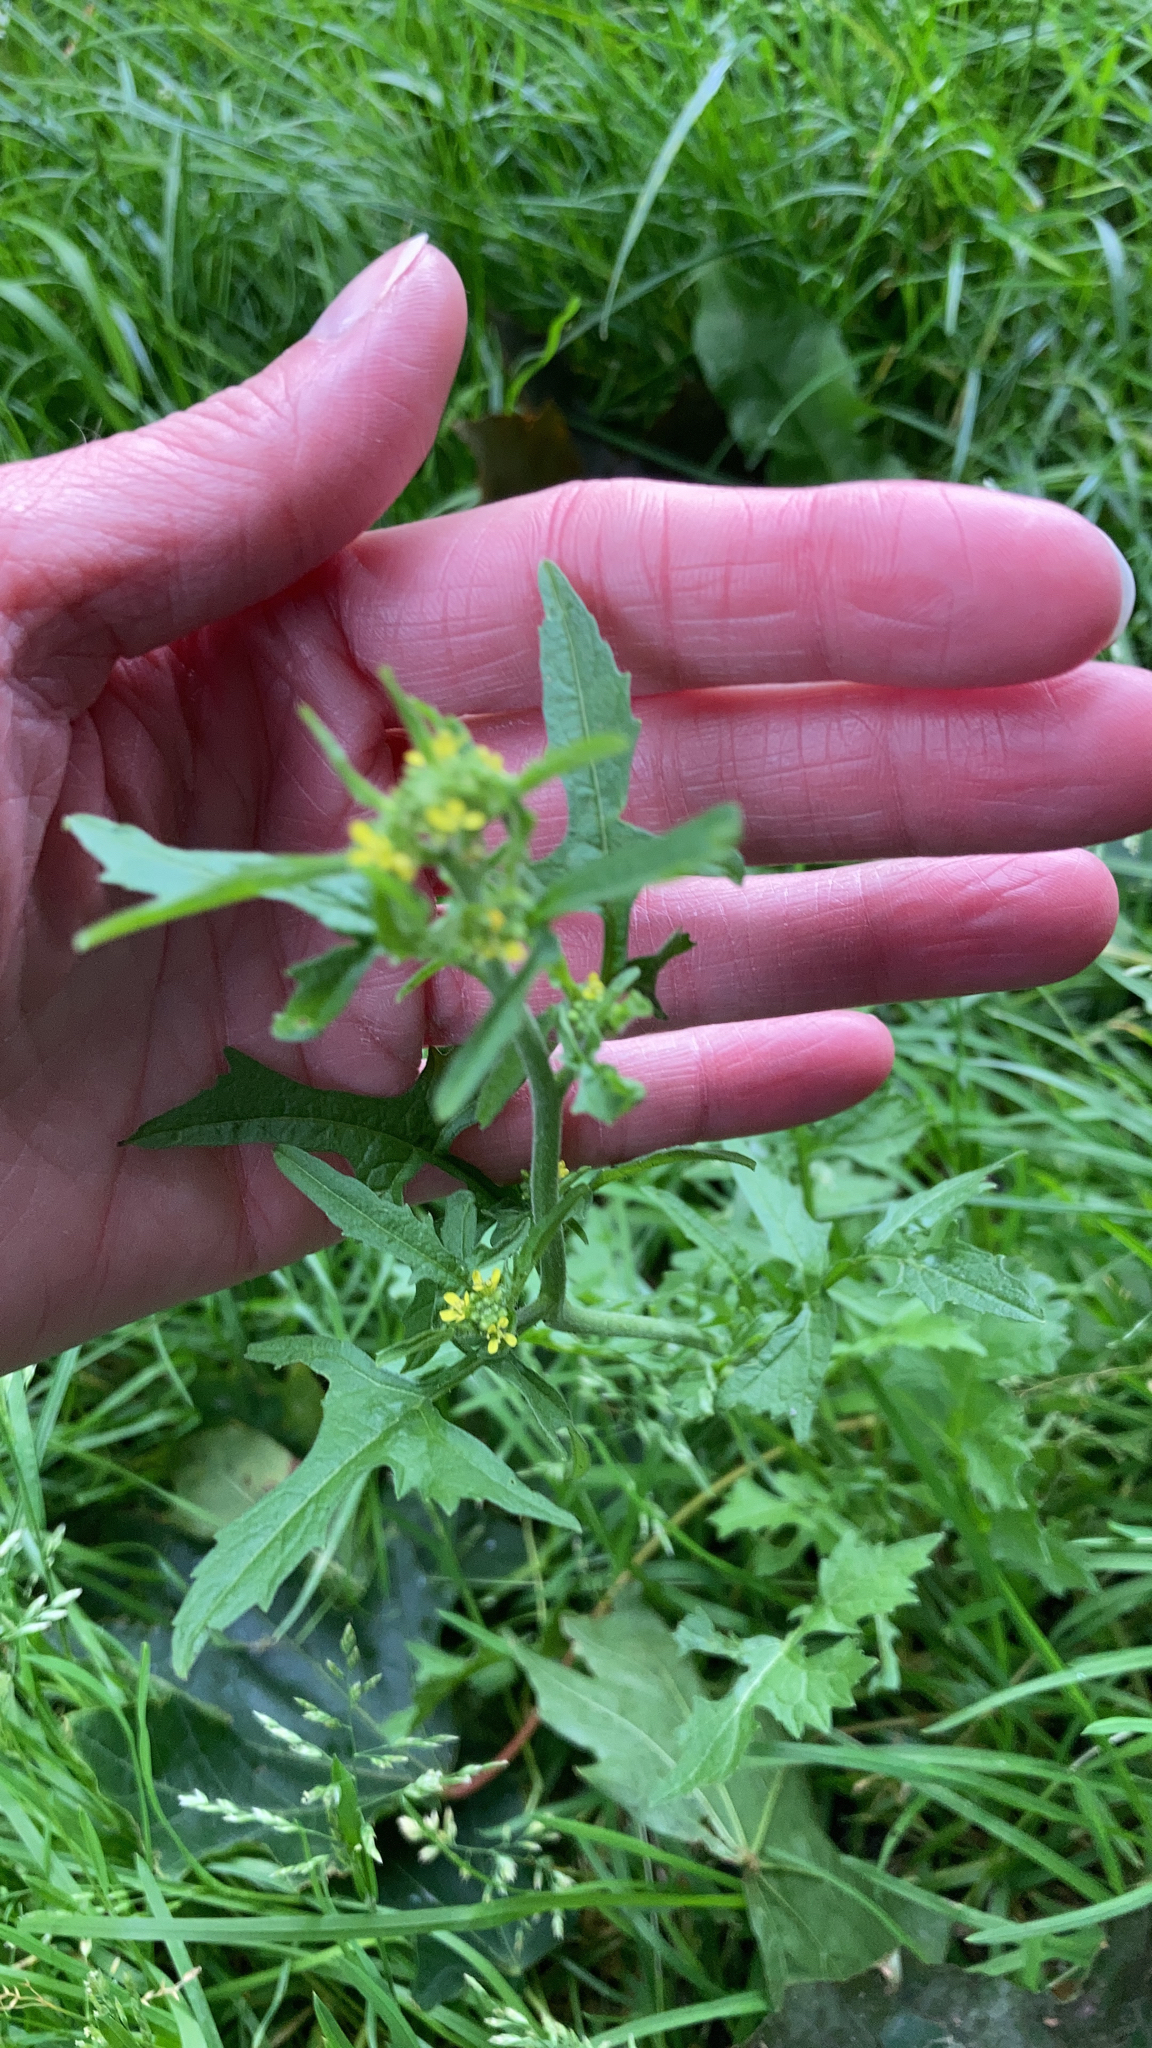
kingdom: Plantae
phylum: Tracheophyta
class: Magnoliopsida
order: Brassicales
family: Brassicaceae
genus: Sisymbrium
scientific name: Sisymbrium officinale
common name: Hedge mustard
